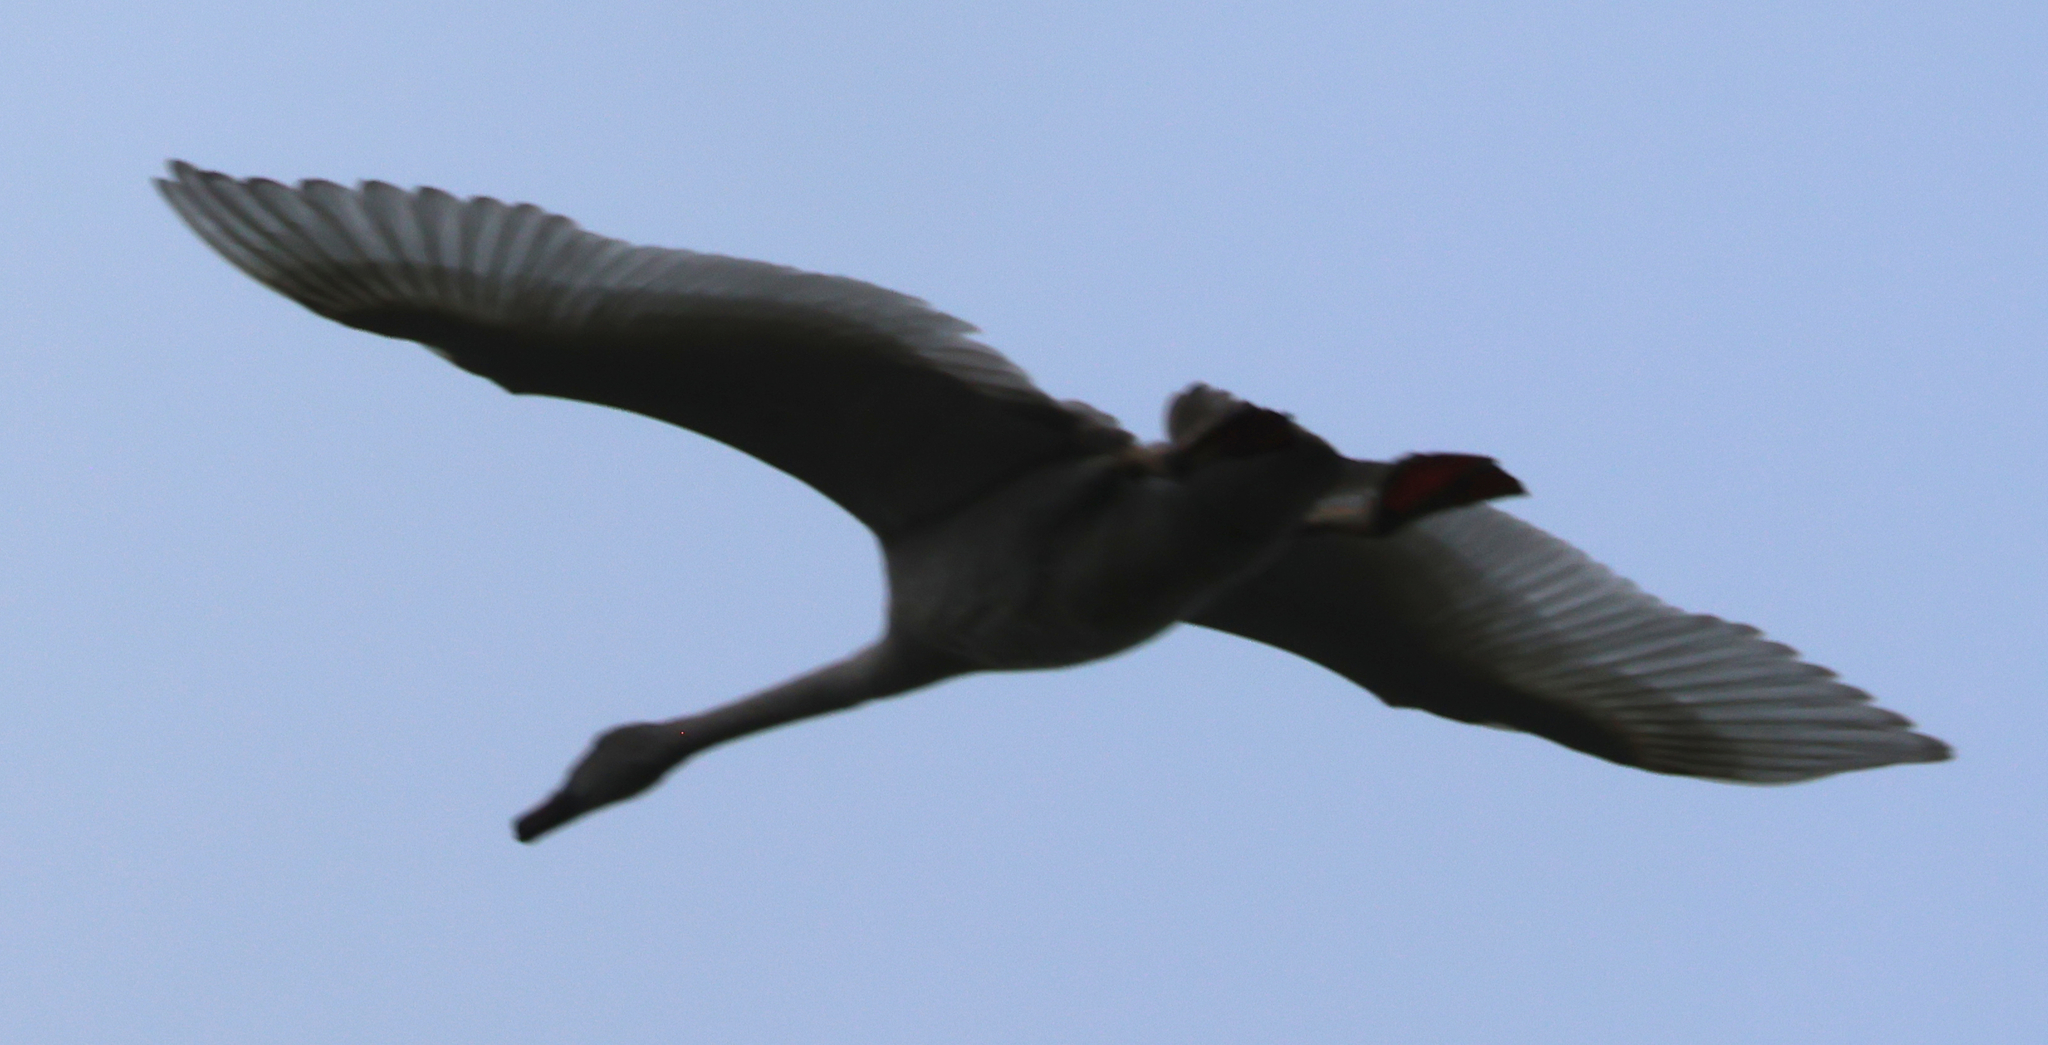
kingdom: Animalia
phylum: Chordata
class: Aves
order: Anseriformes
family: Anatidae
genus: Cygnus
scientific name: Cygnus buccinator
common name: Trumpeter swan
